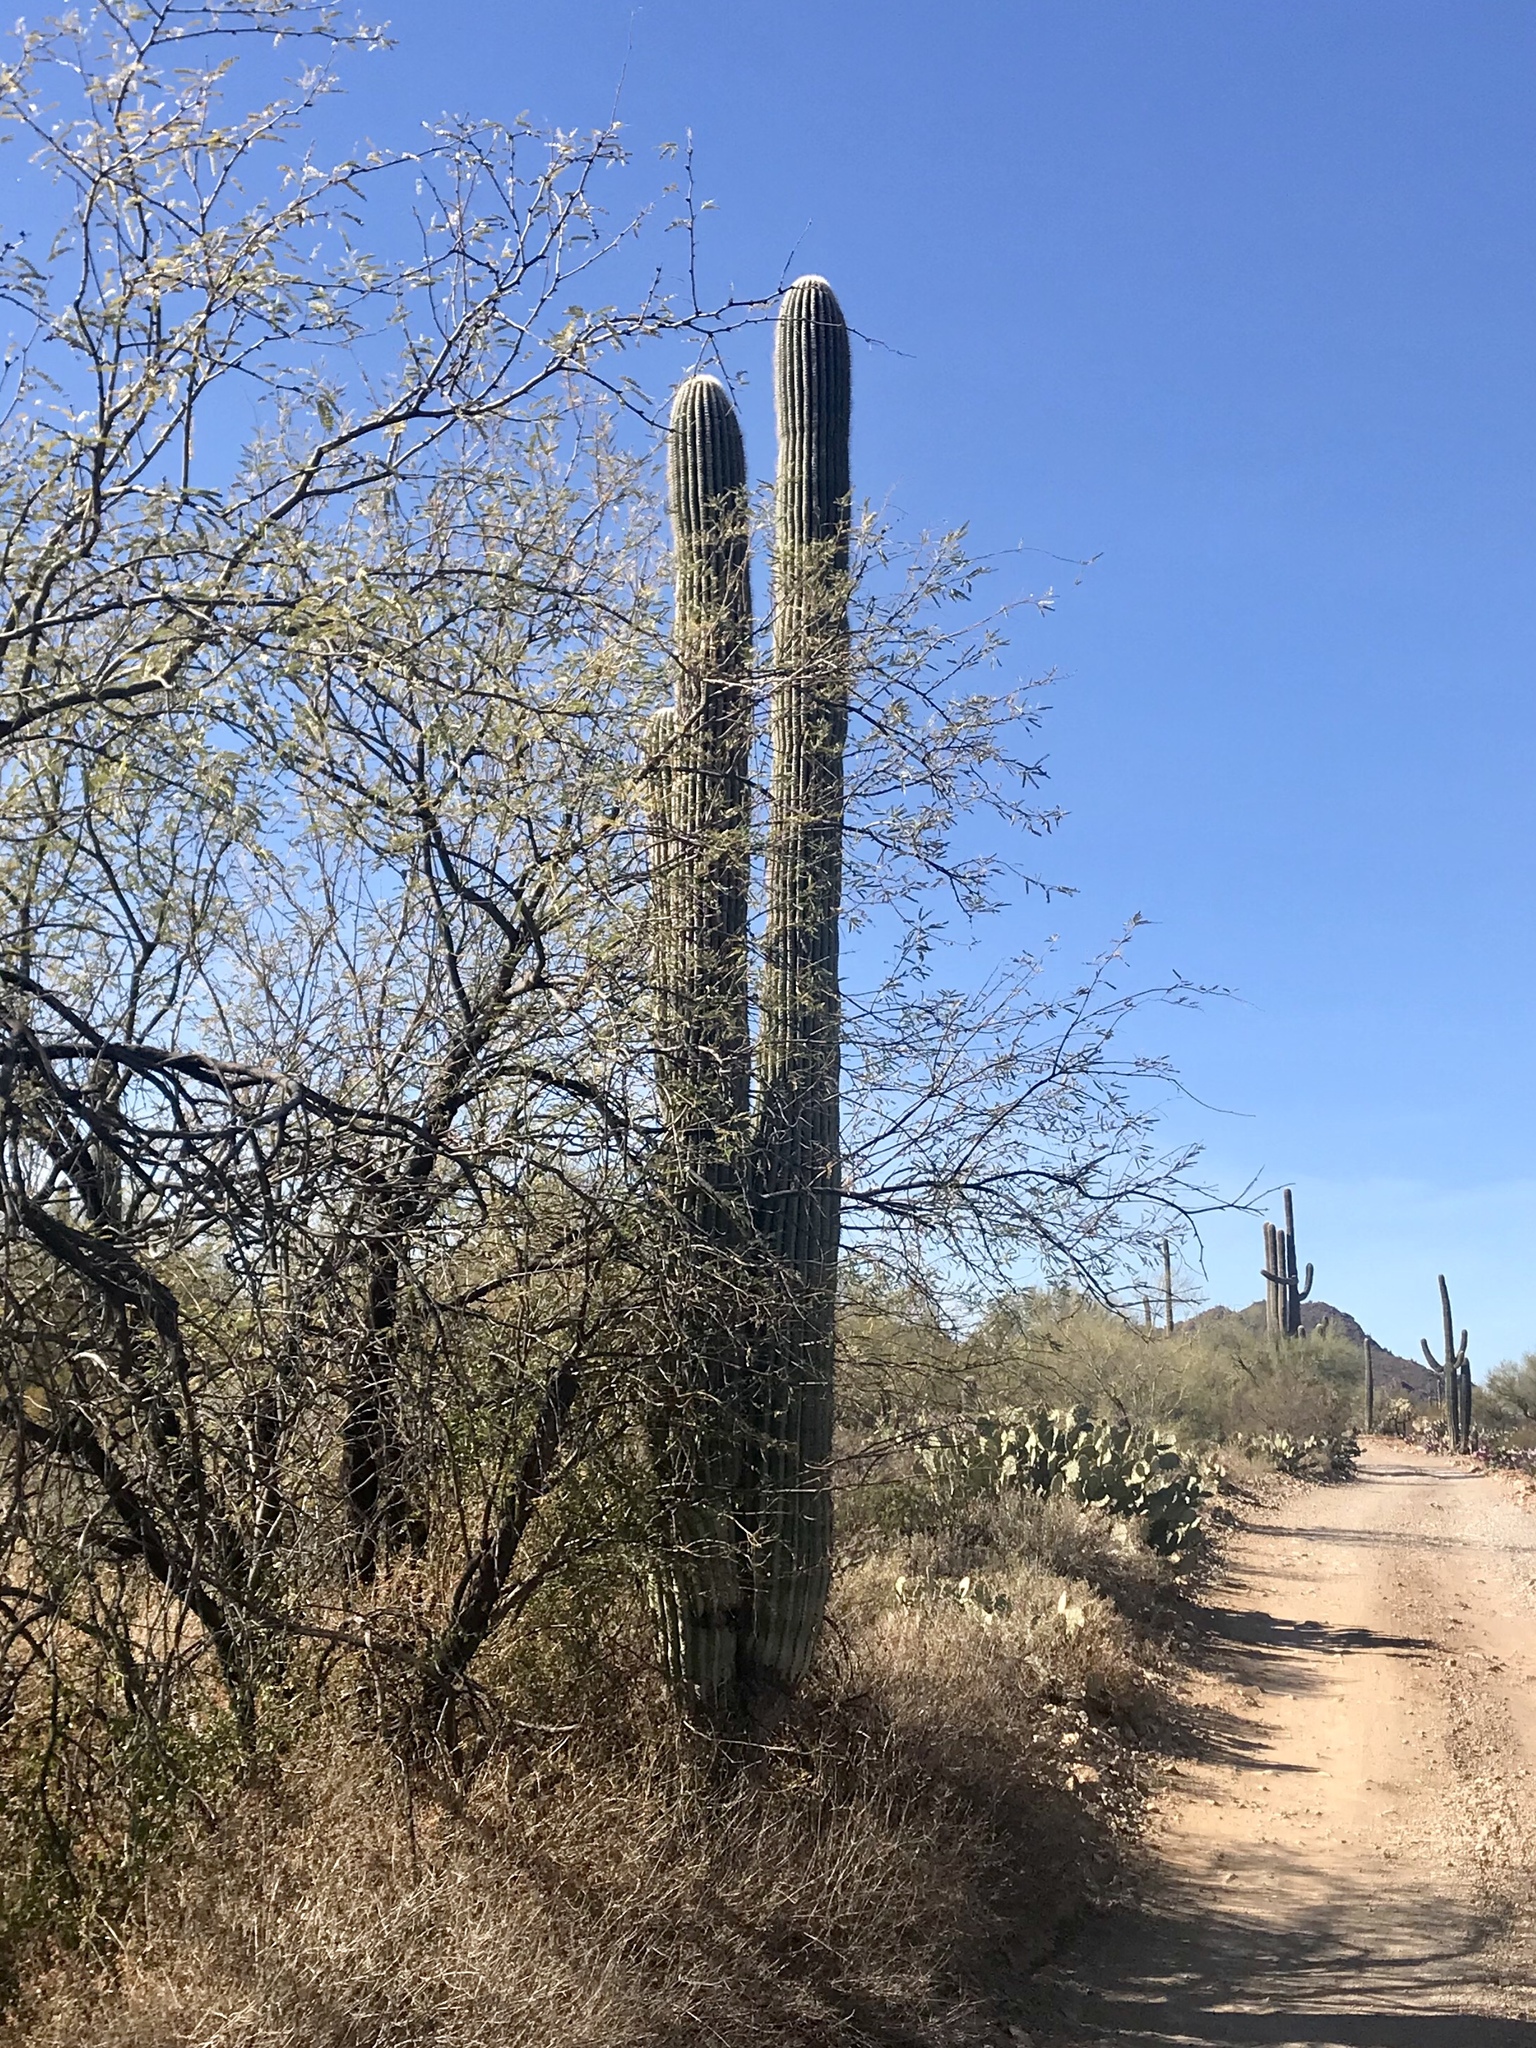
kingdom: Plantae
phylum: Tracheophyta
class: Magnoliopsida
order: Caryophyllales
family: Cactaceae
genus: Carnegiea
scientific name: Carnegiea gigantea
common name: Saguaro
